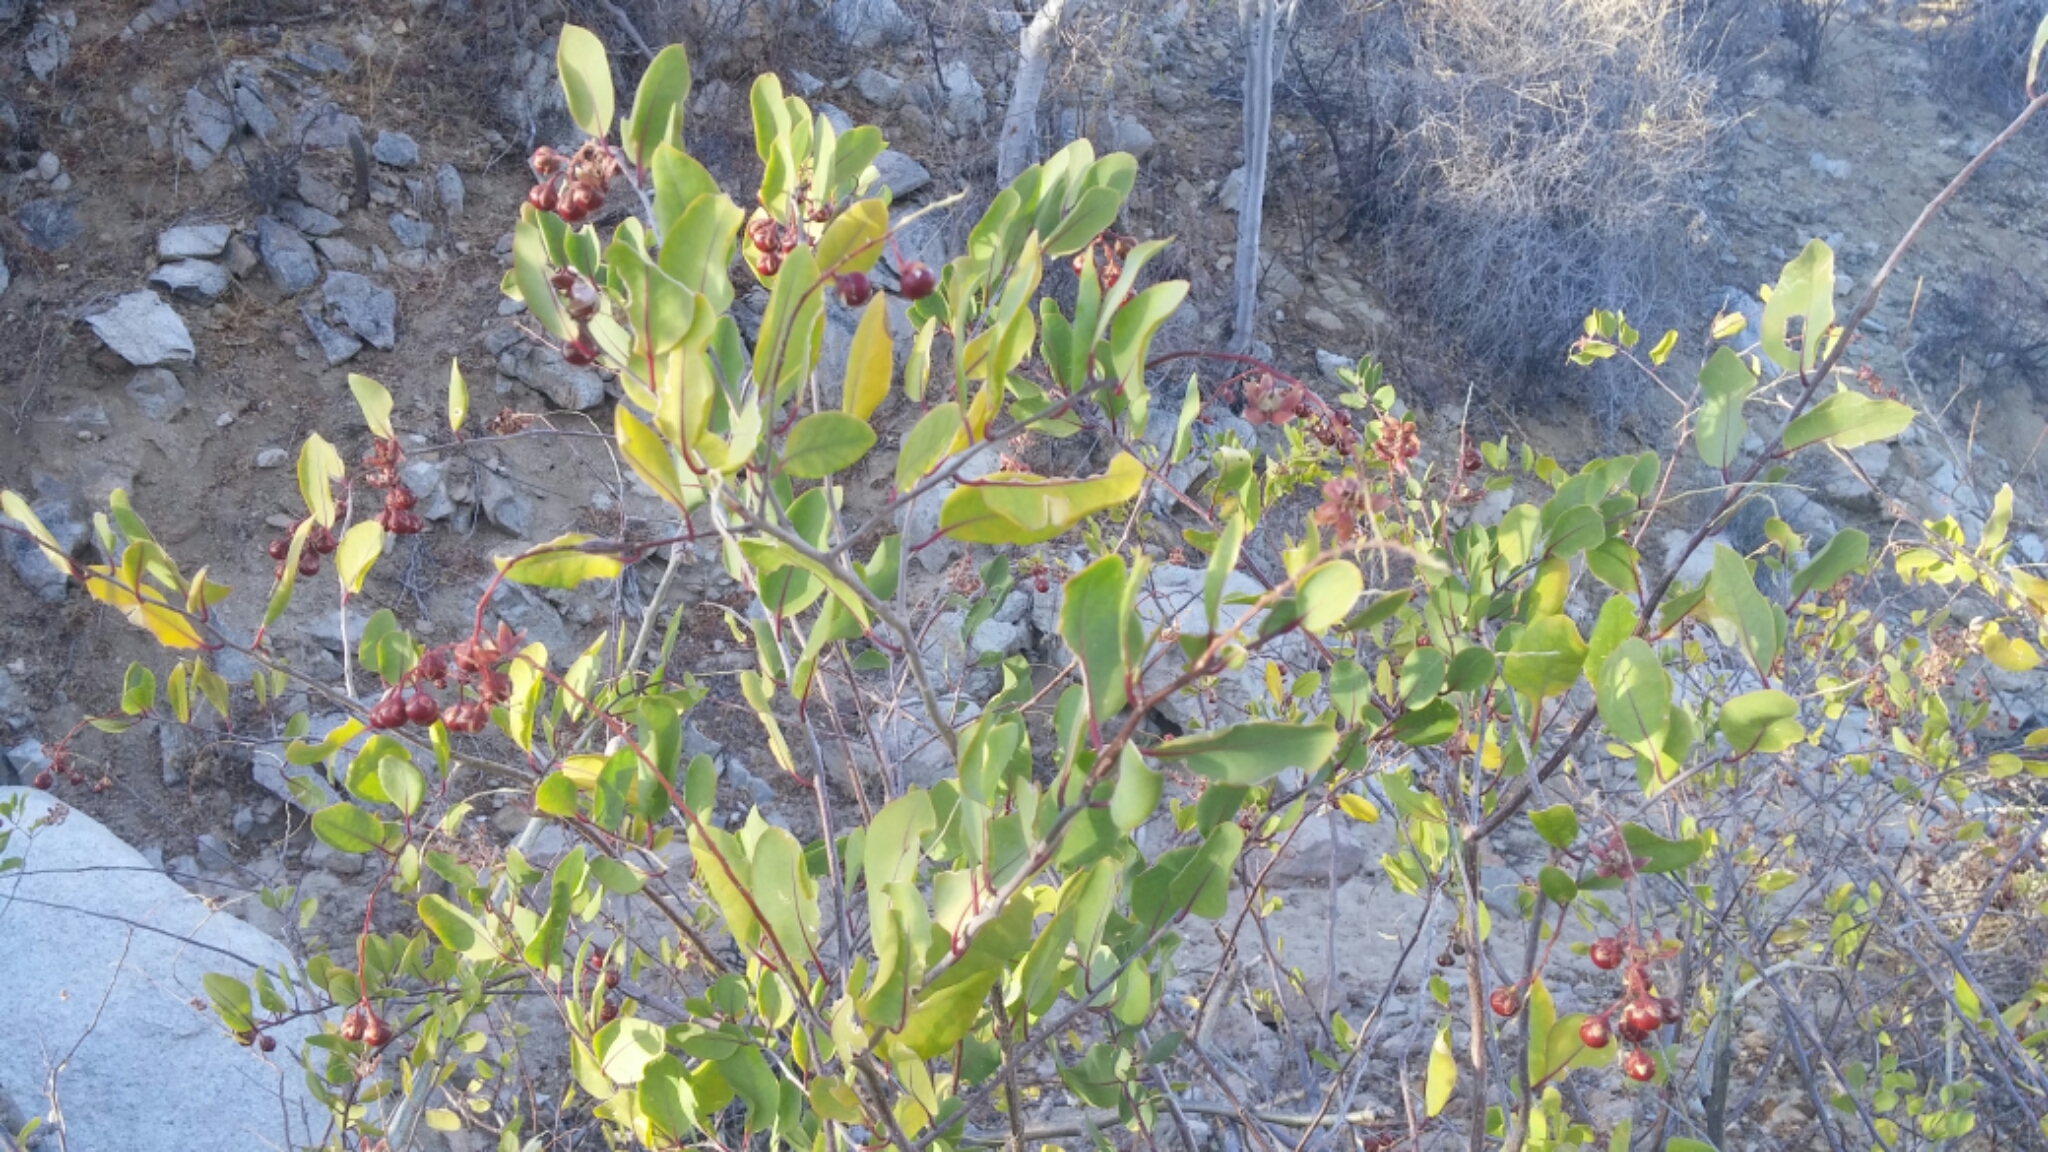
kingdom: Plantae
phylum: Tracheophyta
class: Magnoliopsida
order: Caryophyllales
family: Stegnospermataceae
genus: Stegnosperma
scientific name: Stegnosperma halimifolium
